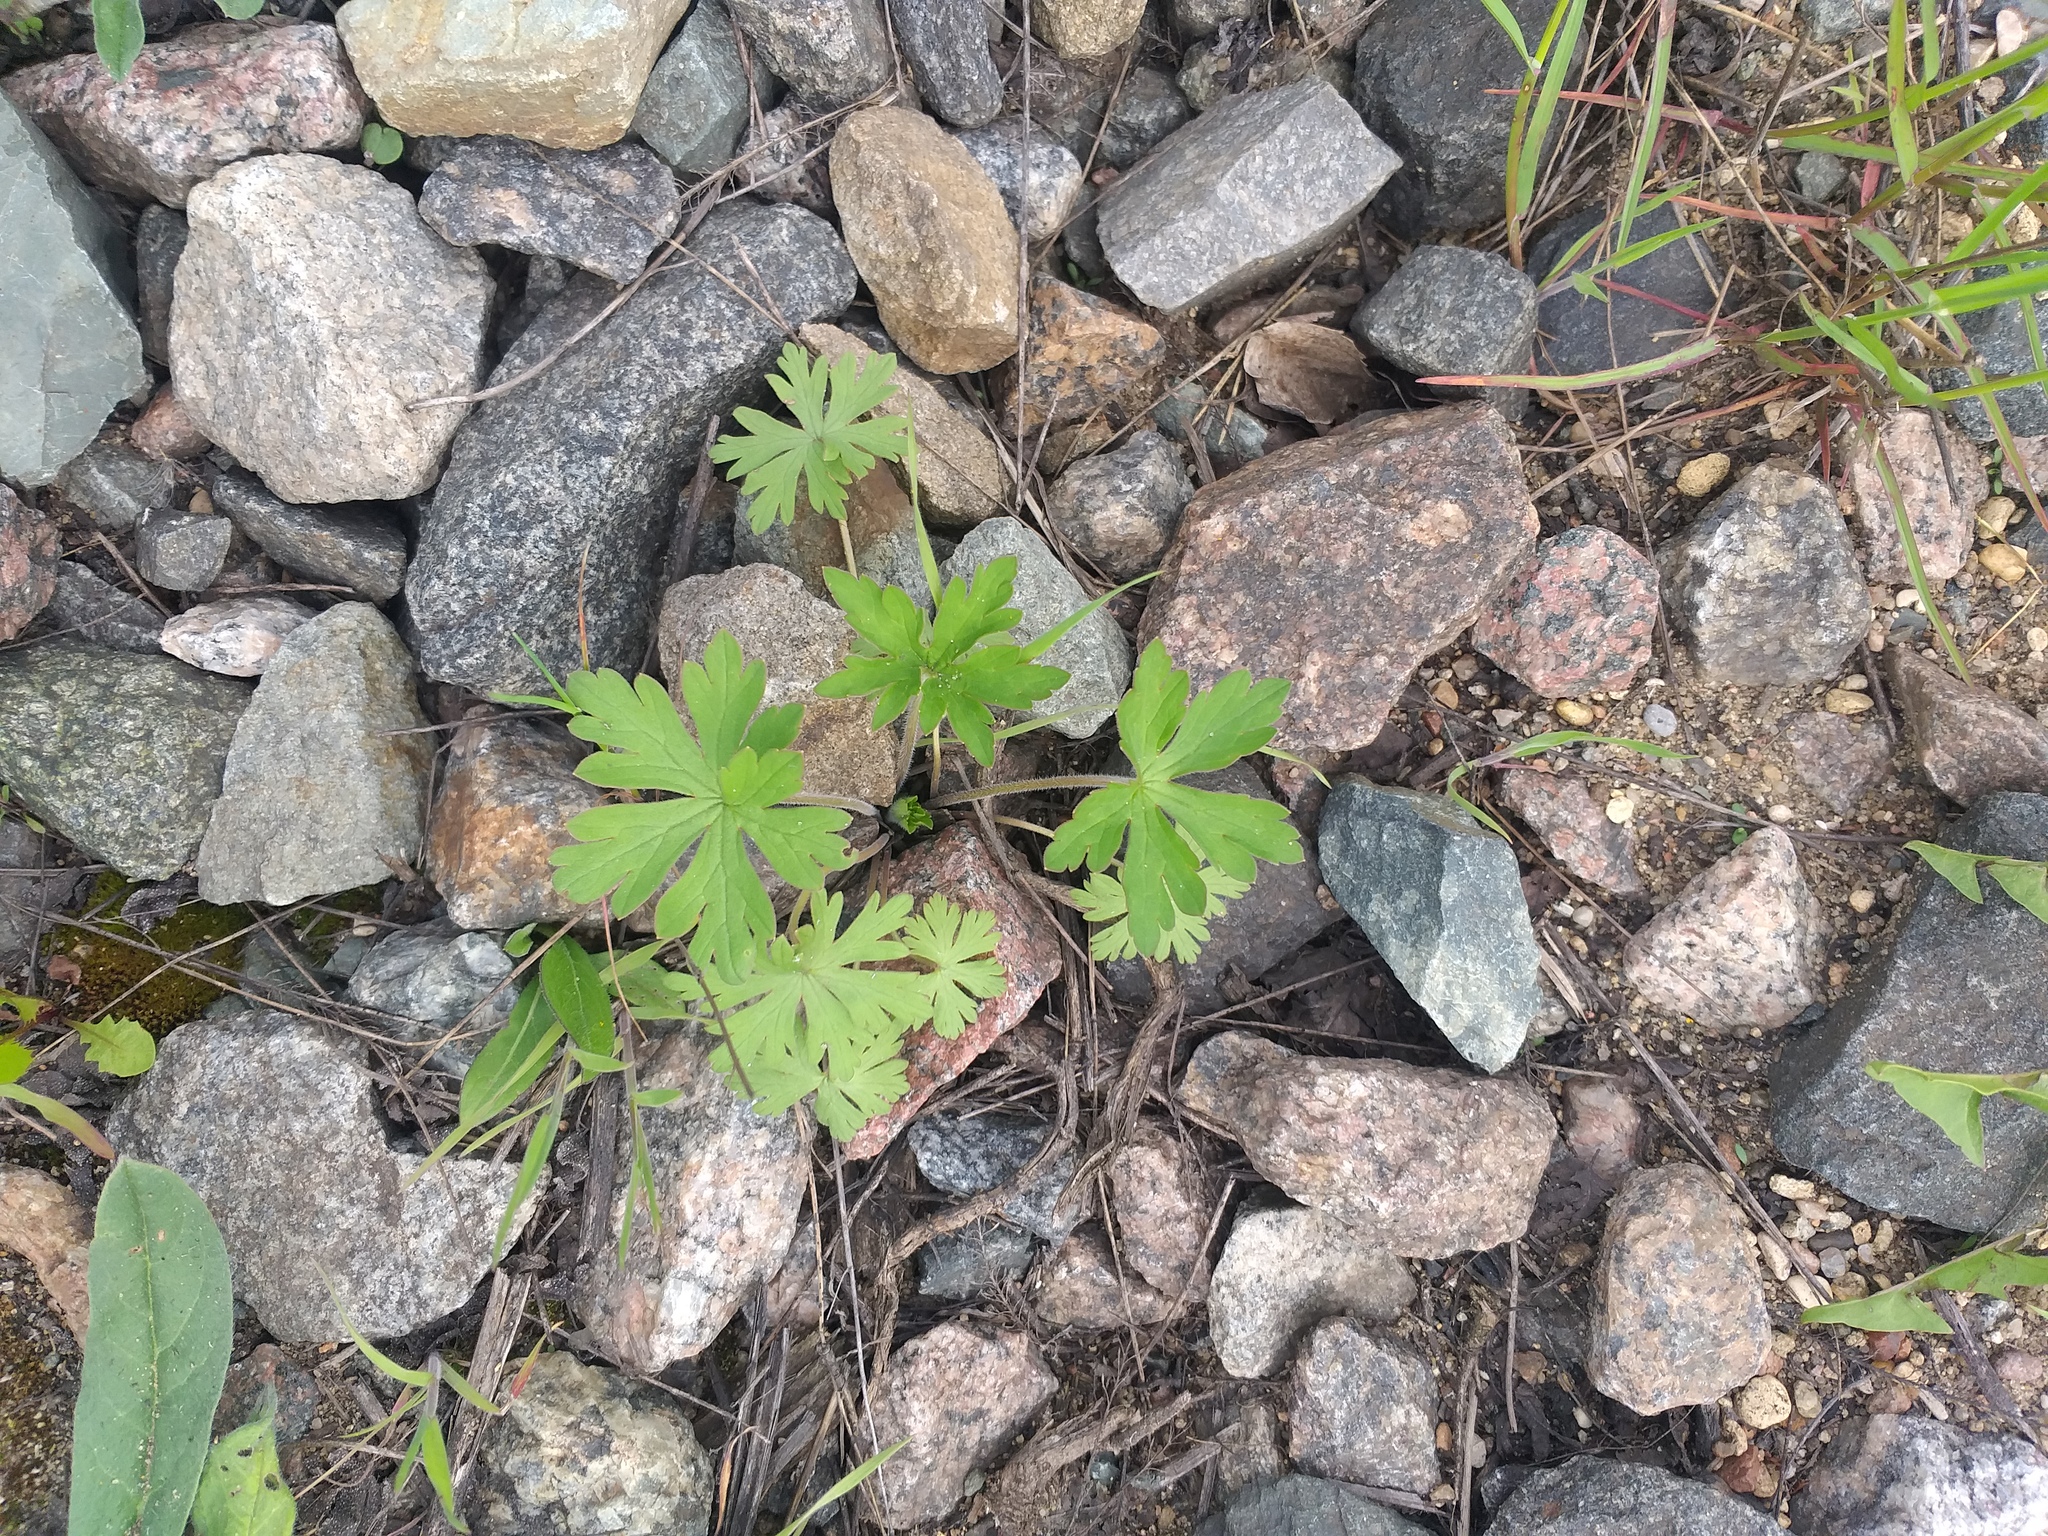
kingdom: Plantae
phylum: Tracheophyta
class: Magnoliopsida
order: Geraniales
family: Geraniaceae
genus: Geranium
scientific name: Geranium sibiricum
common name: Siberian crane's-bill
